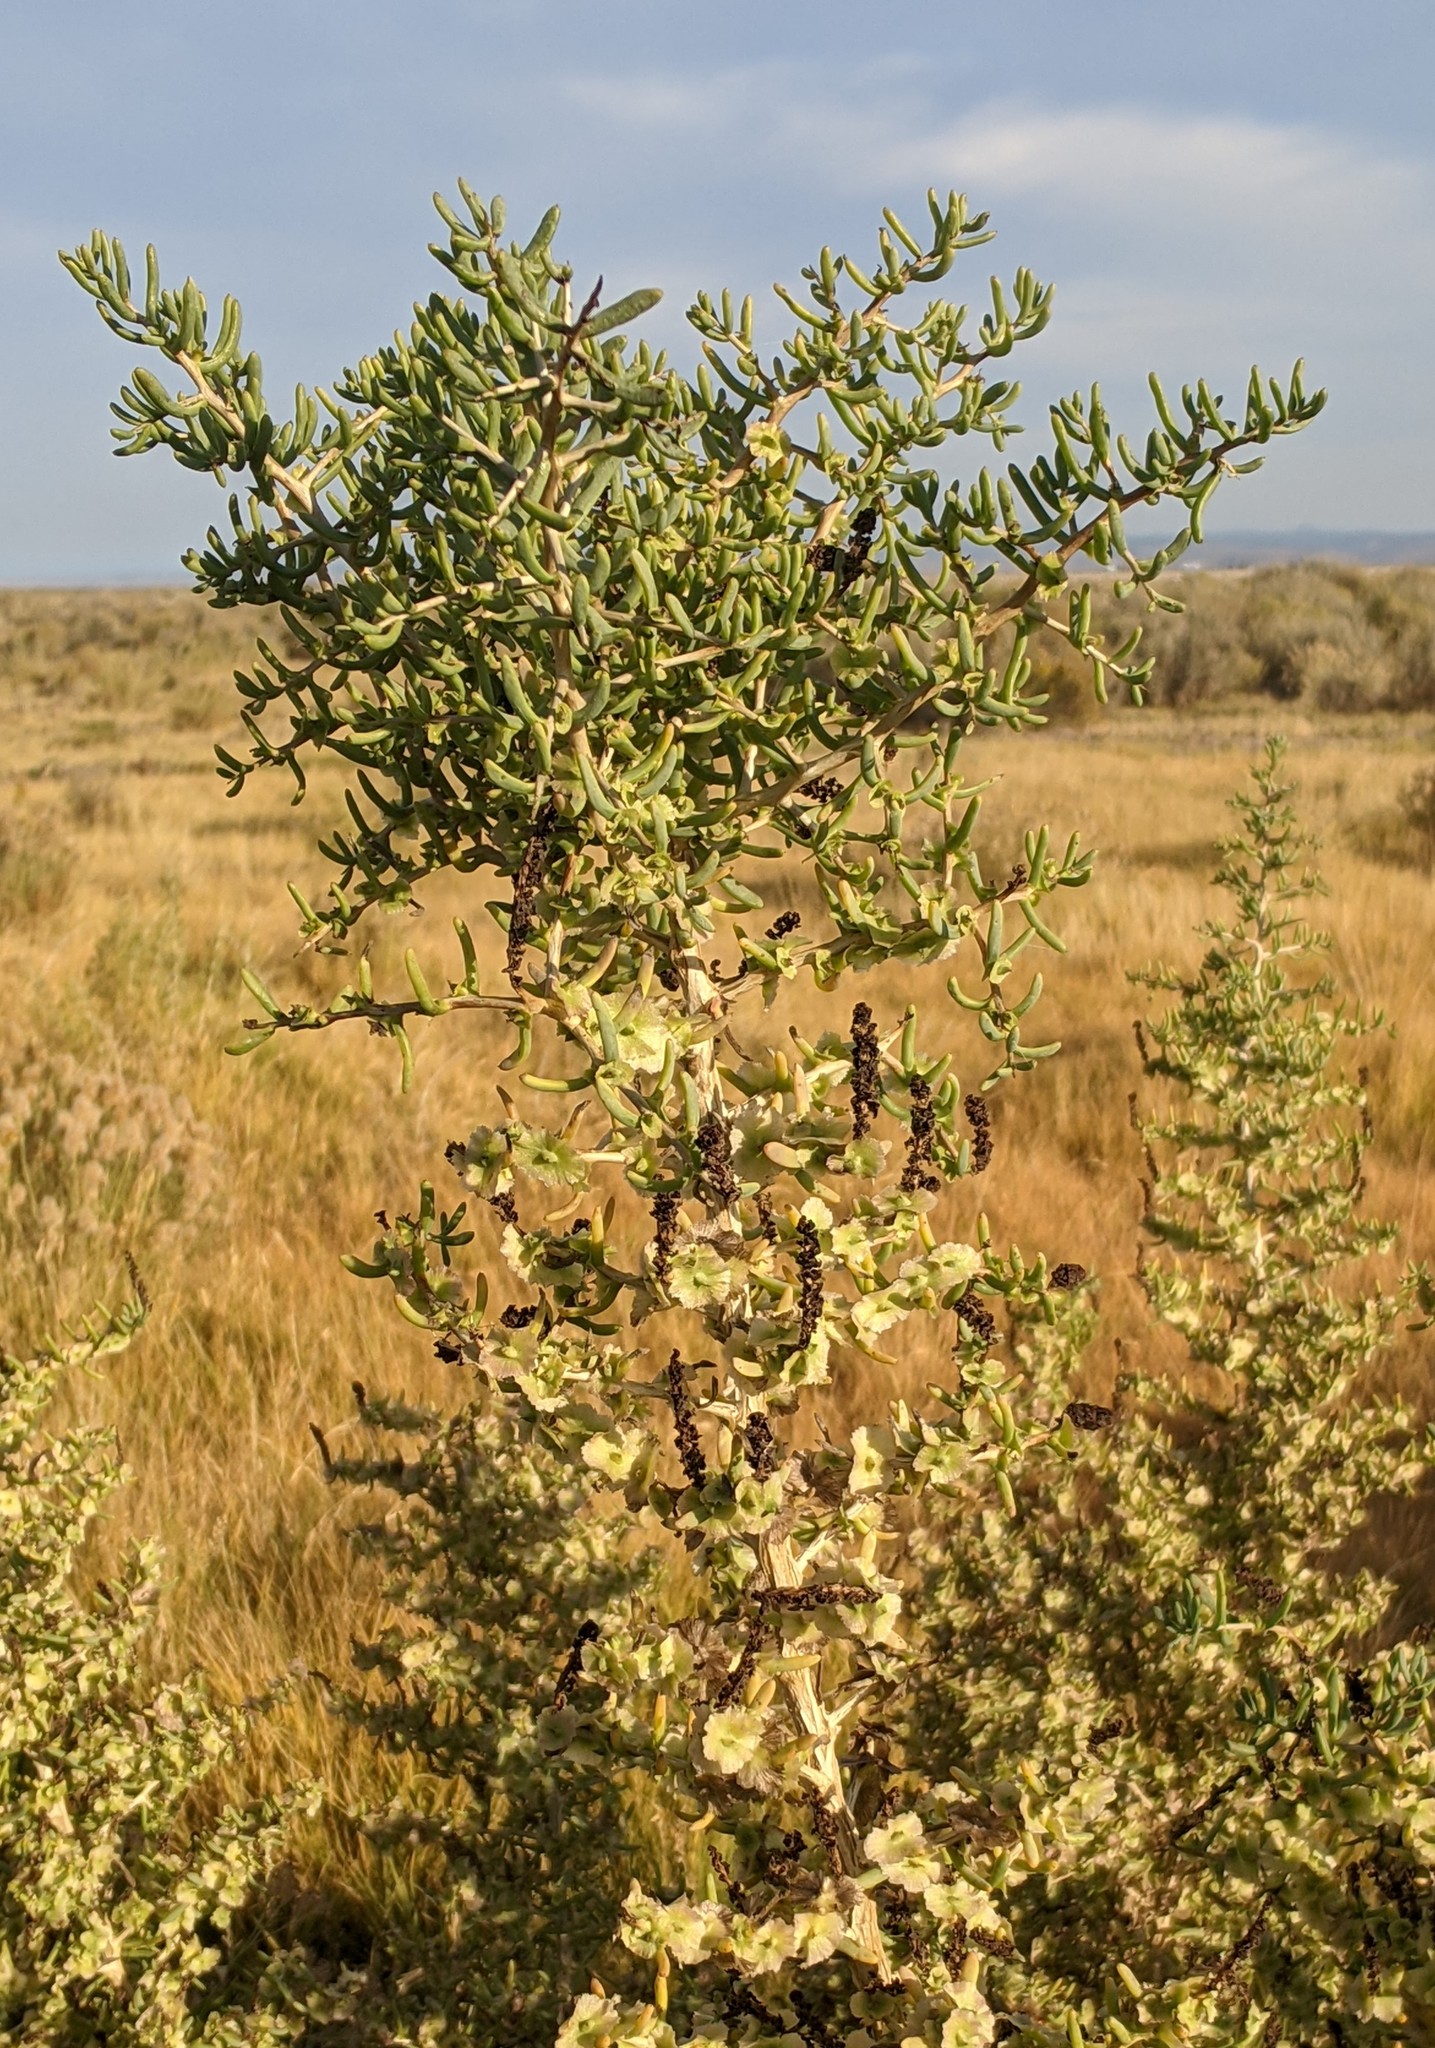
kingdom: Plantae
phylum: Tracheophyta
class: Magnoliopsida
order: Caryophyllales
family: Sarcobataceae
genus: Sarcobatus
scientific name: Sarcobatus vermiculatus
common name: Greasewood
